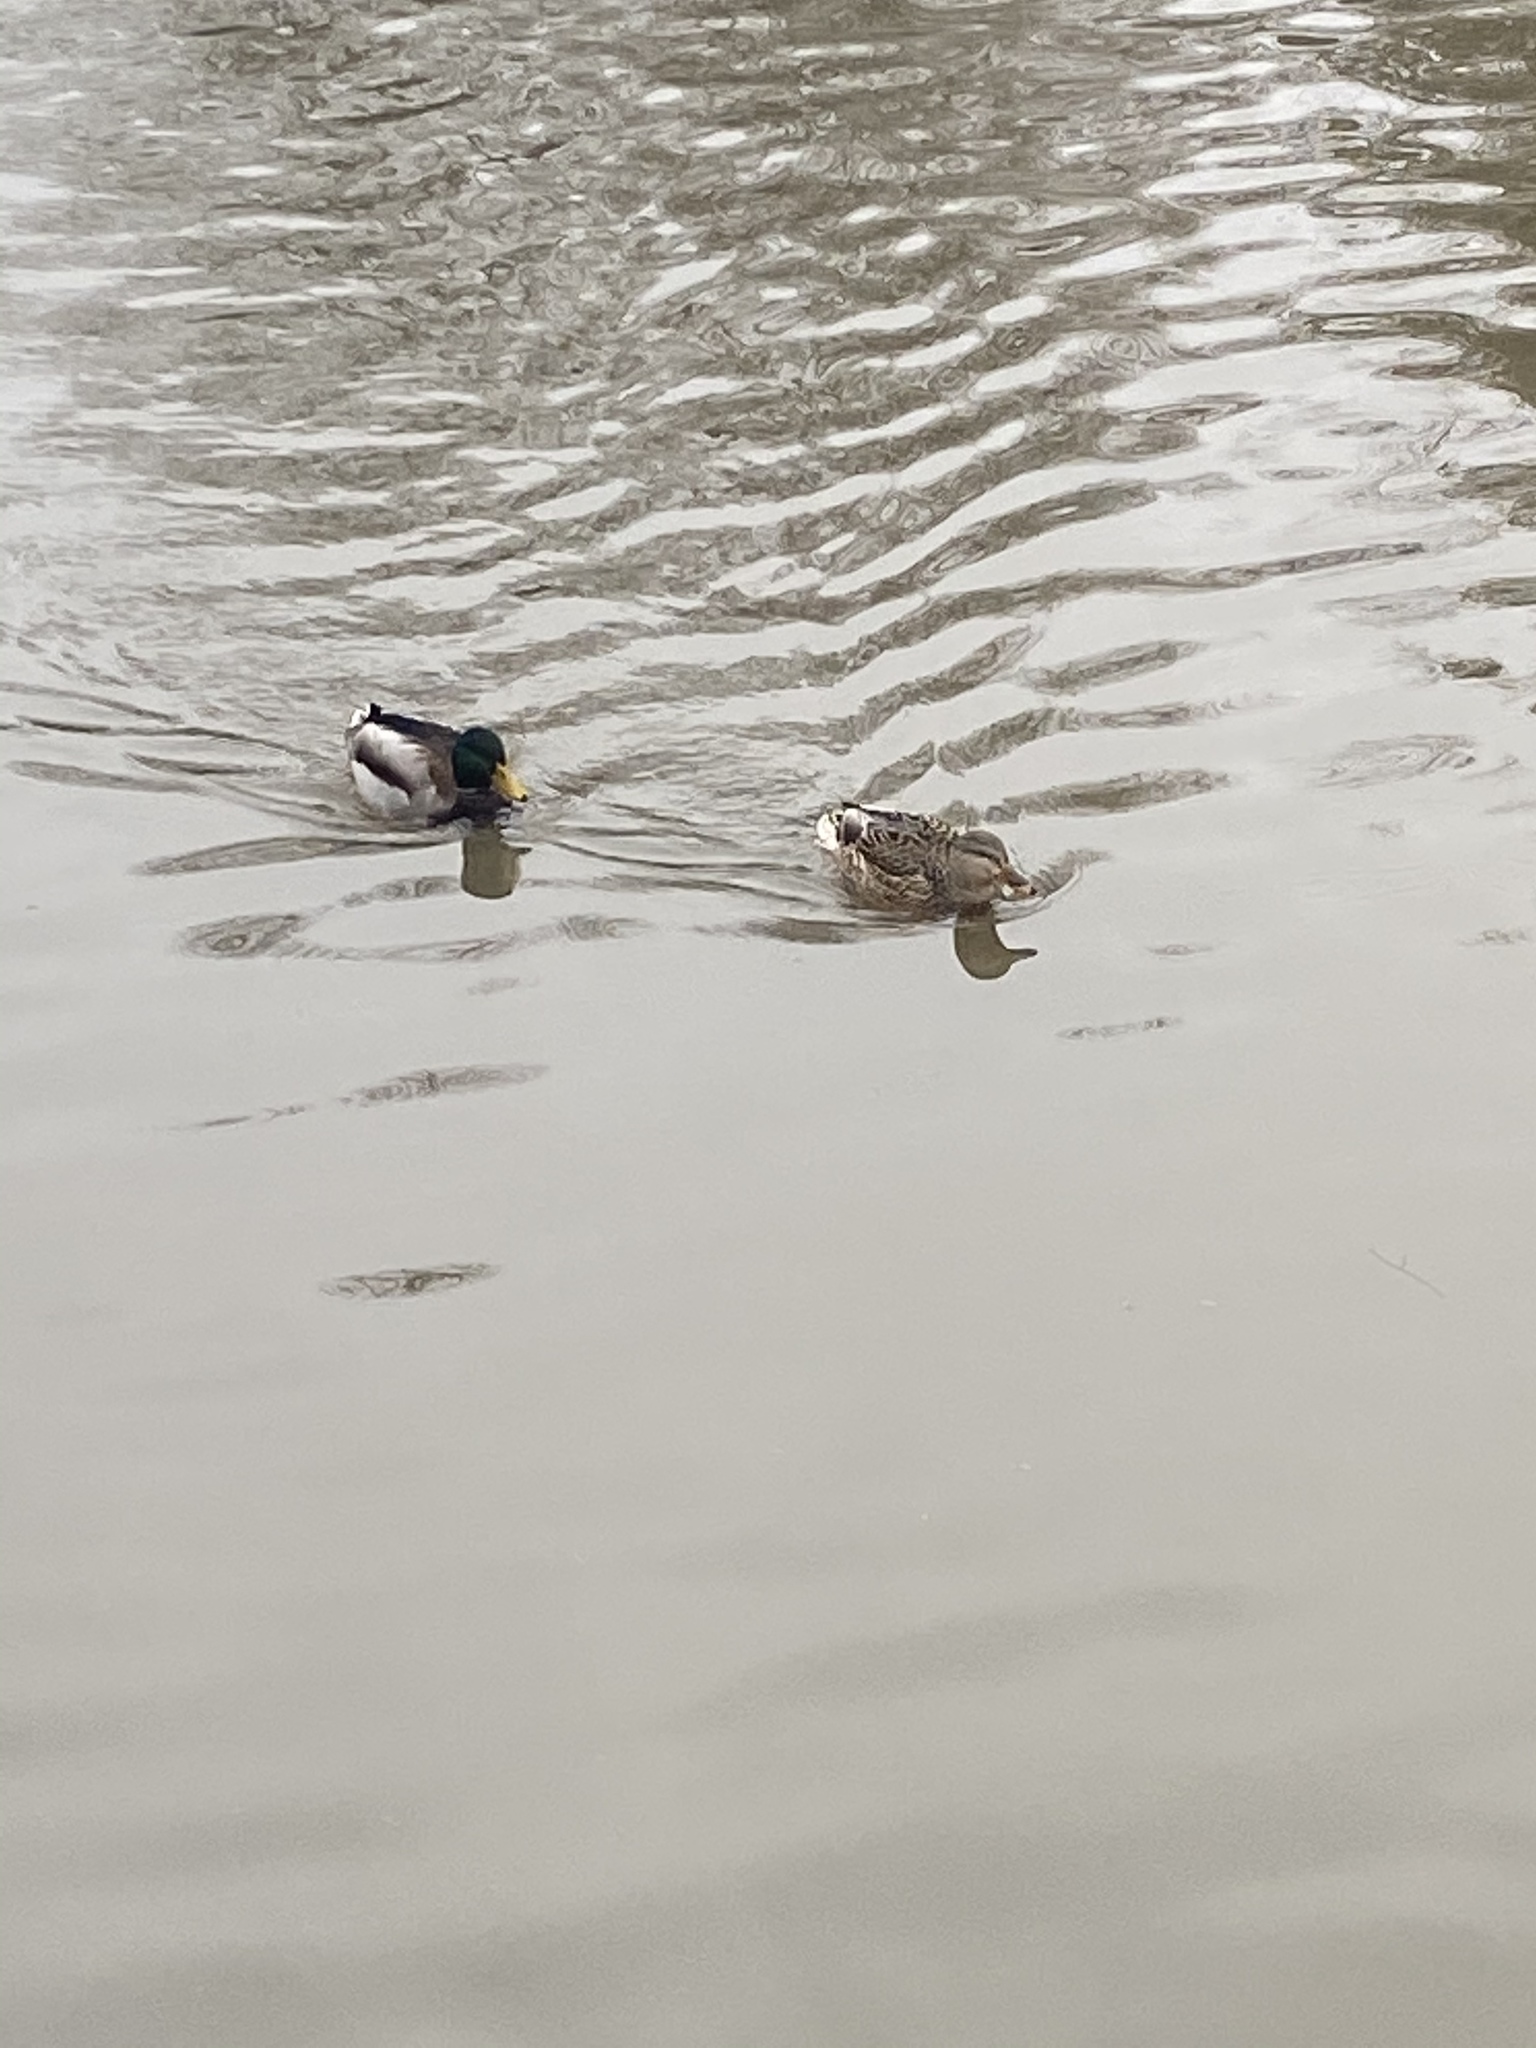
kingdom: Animalia
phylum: Chordata
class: Aves
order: Anseriformes
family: Anatidae
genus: Anas
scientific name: Anas platyrhynchos
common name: Mallard
